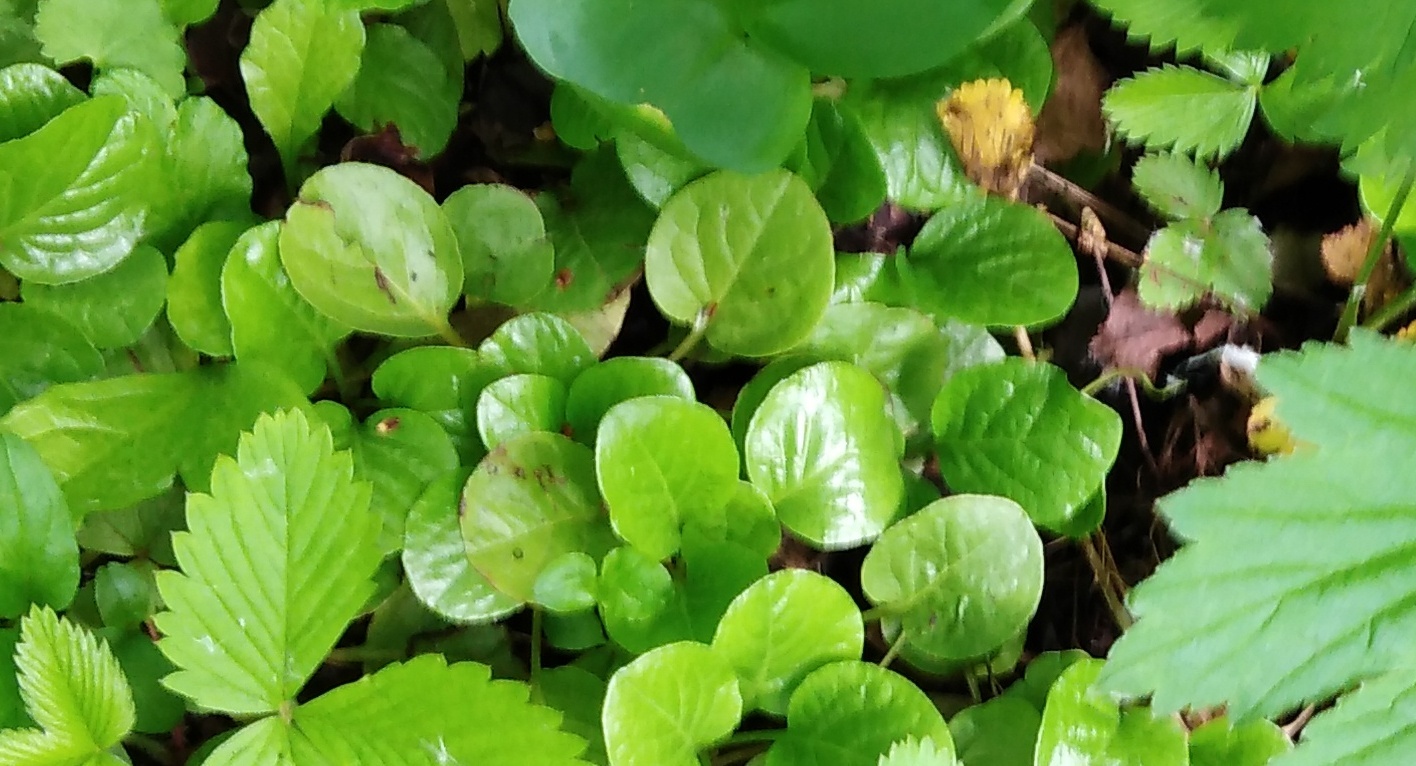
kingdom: Plantae
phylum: Tracheophyta
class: Magnoliopsida
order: Ericales
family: Ericaceae
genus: Pyrola
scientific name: Pyrola rotundifolia
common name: Round-leaved wintergreen
